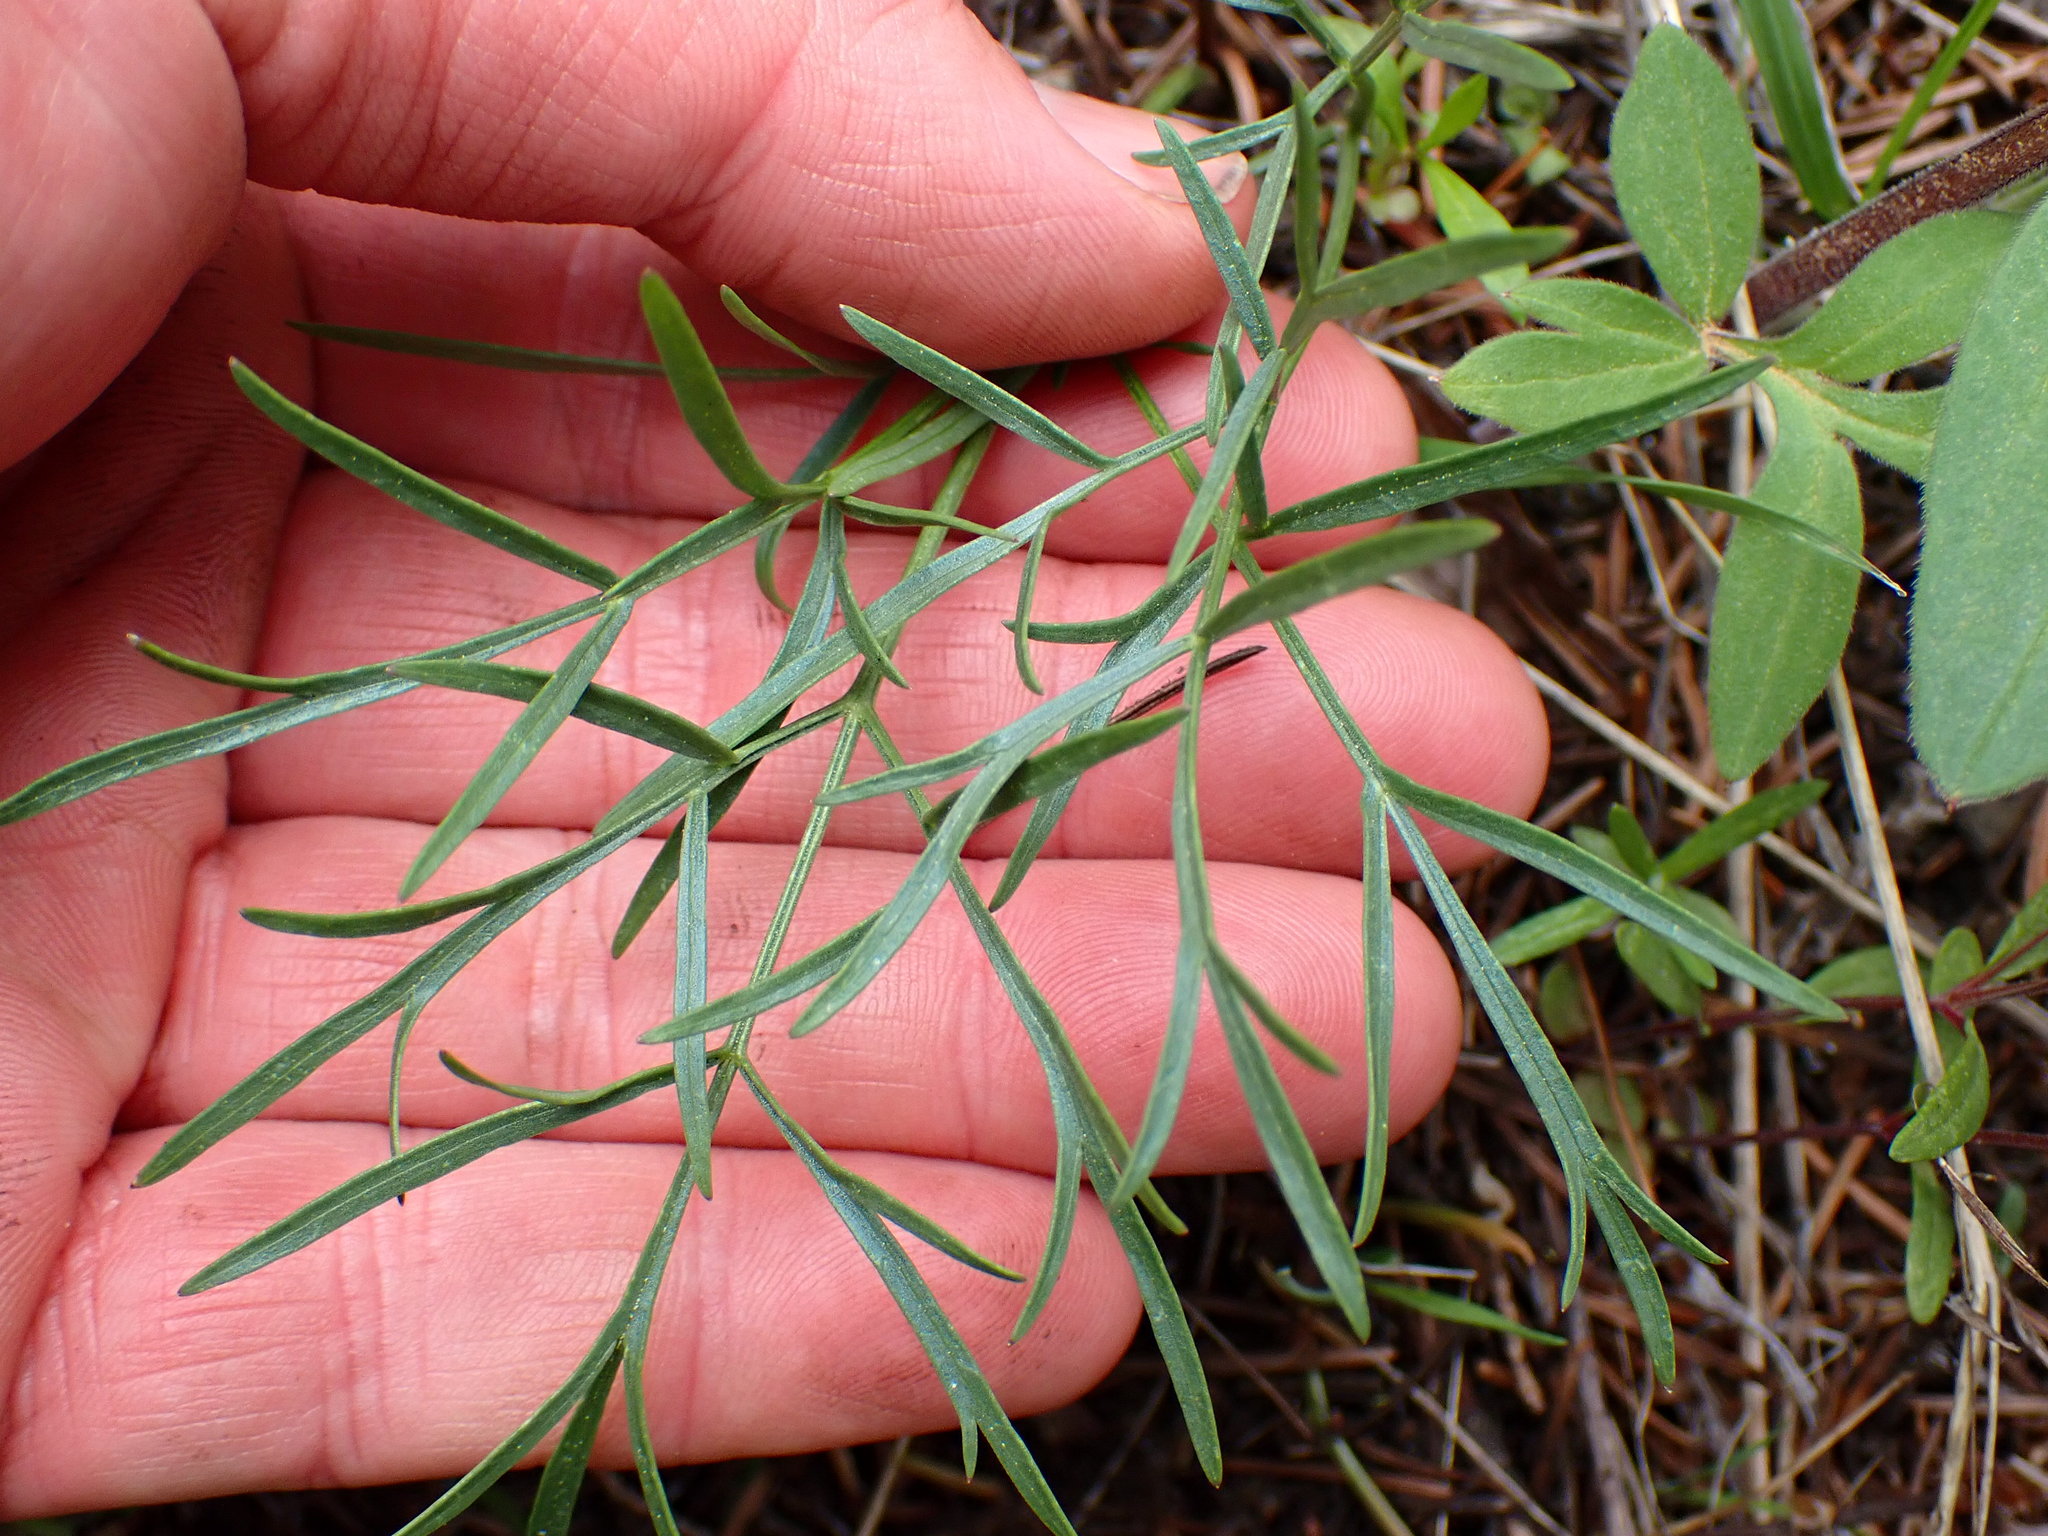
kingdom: Plantae
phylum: Tracheophyta
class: Magnoliopsida
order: Apiales
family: Apiaceae
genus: Lomatium
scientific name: Lomatium geyeri
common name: Geyer's biscuitroot
